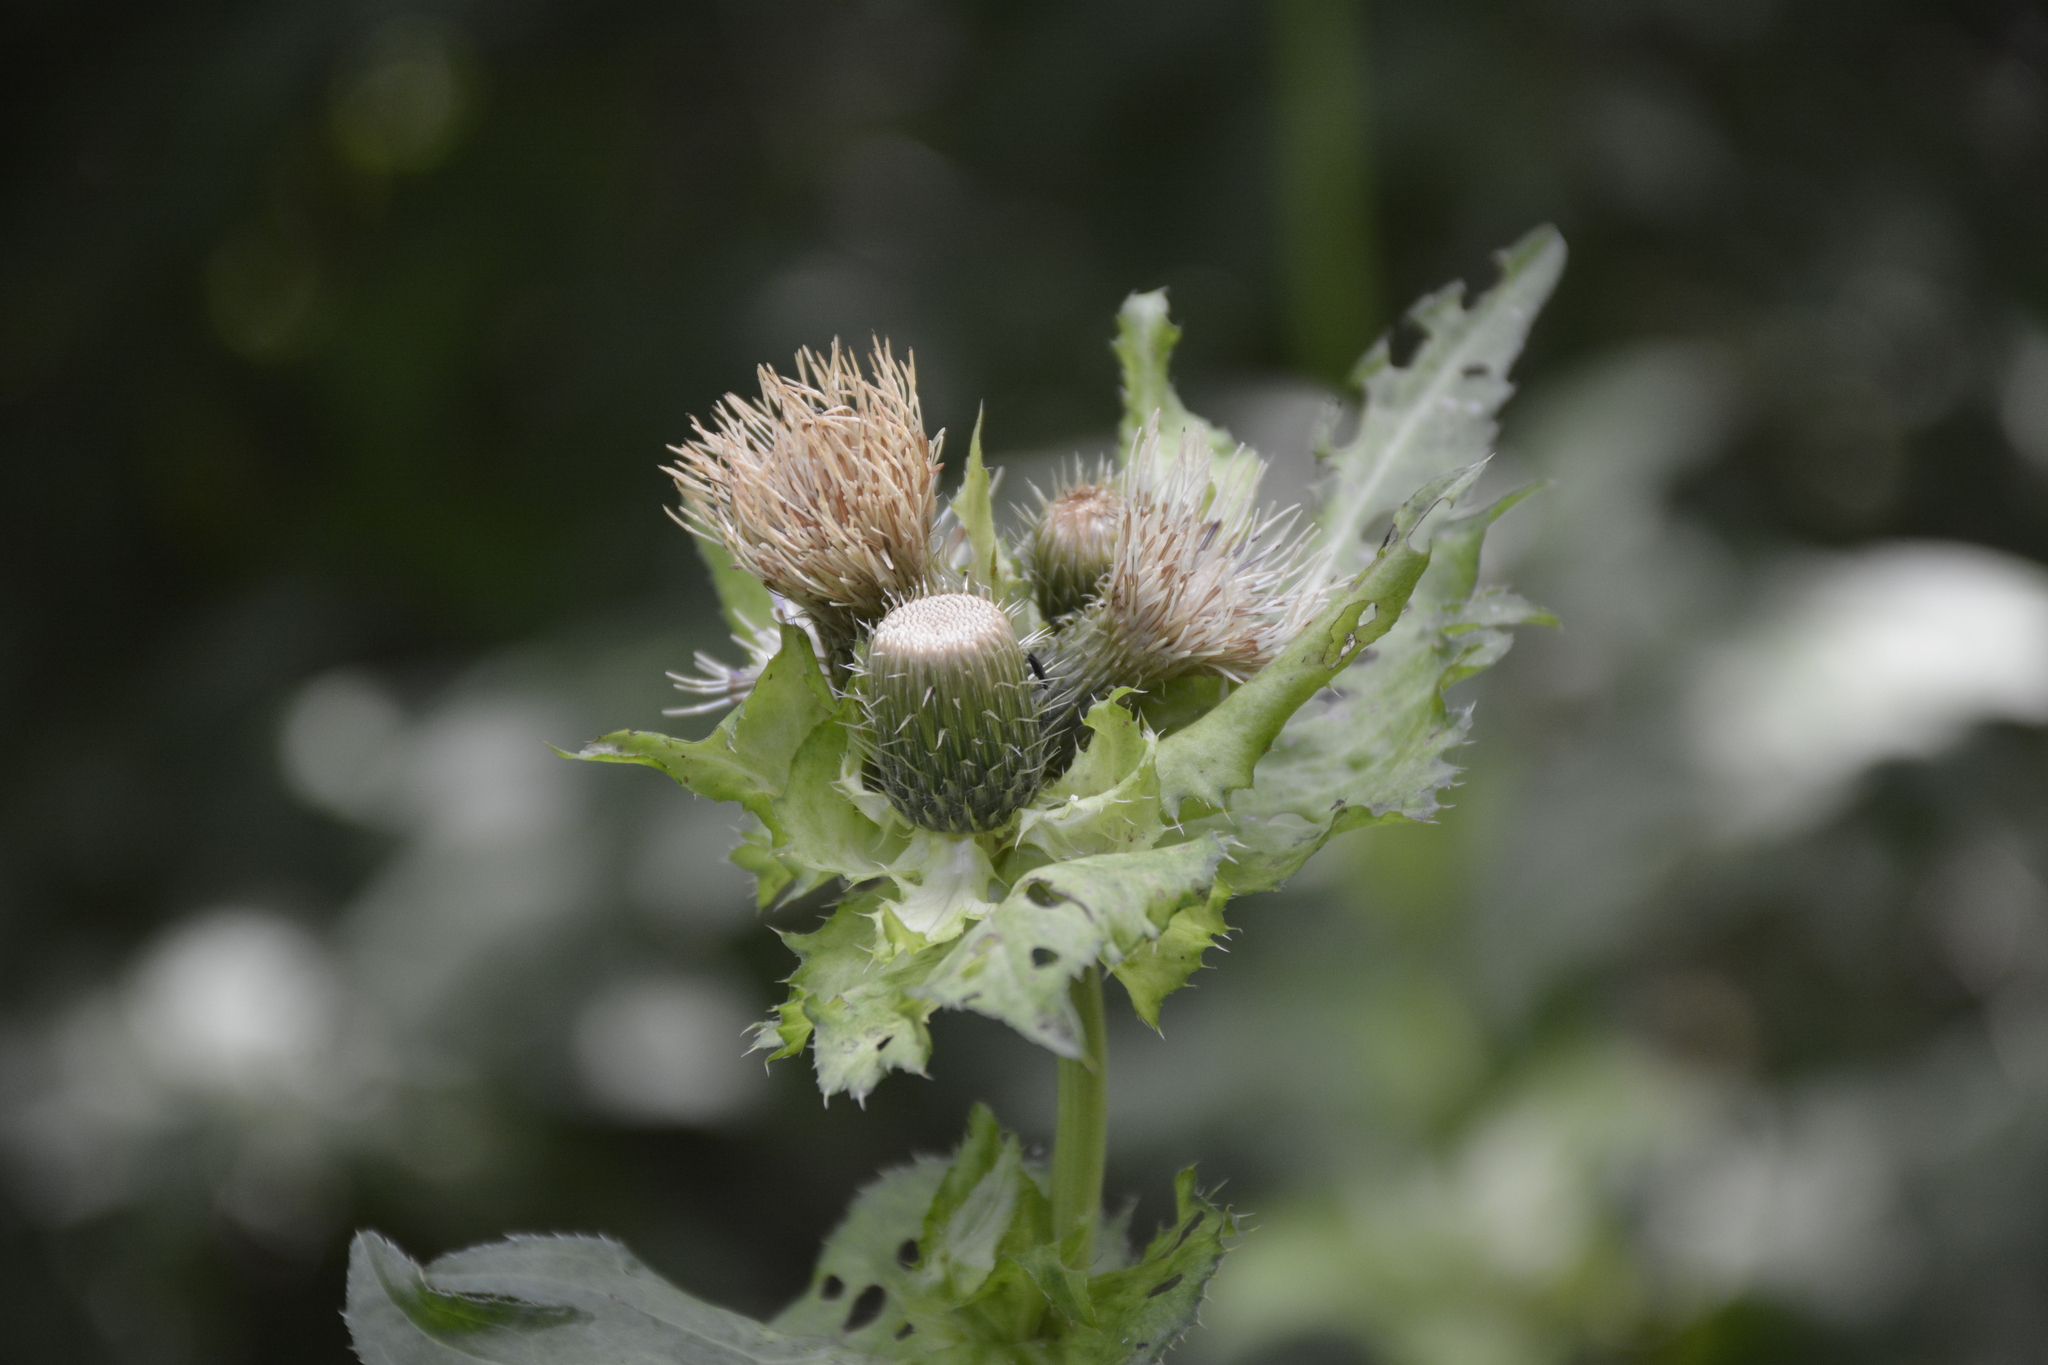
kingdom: Plantae
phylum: Tracheophyta
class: Magnoliopsida
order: Asterales
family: Asteraceae
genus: Cirsium
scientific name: Cirsium oleraceum
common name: Cabbage thistle
